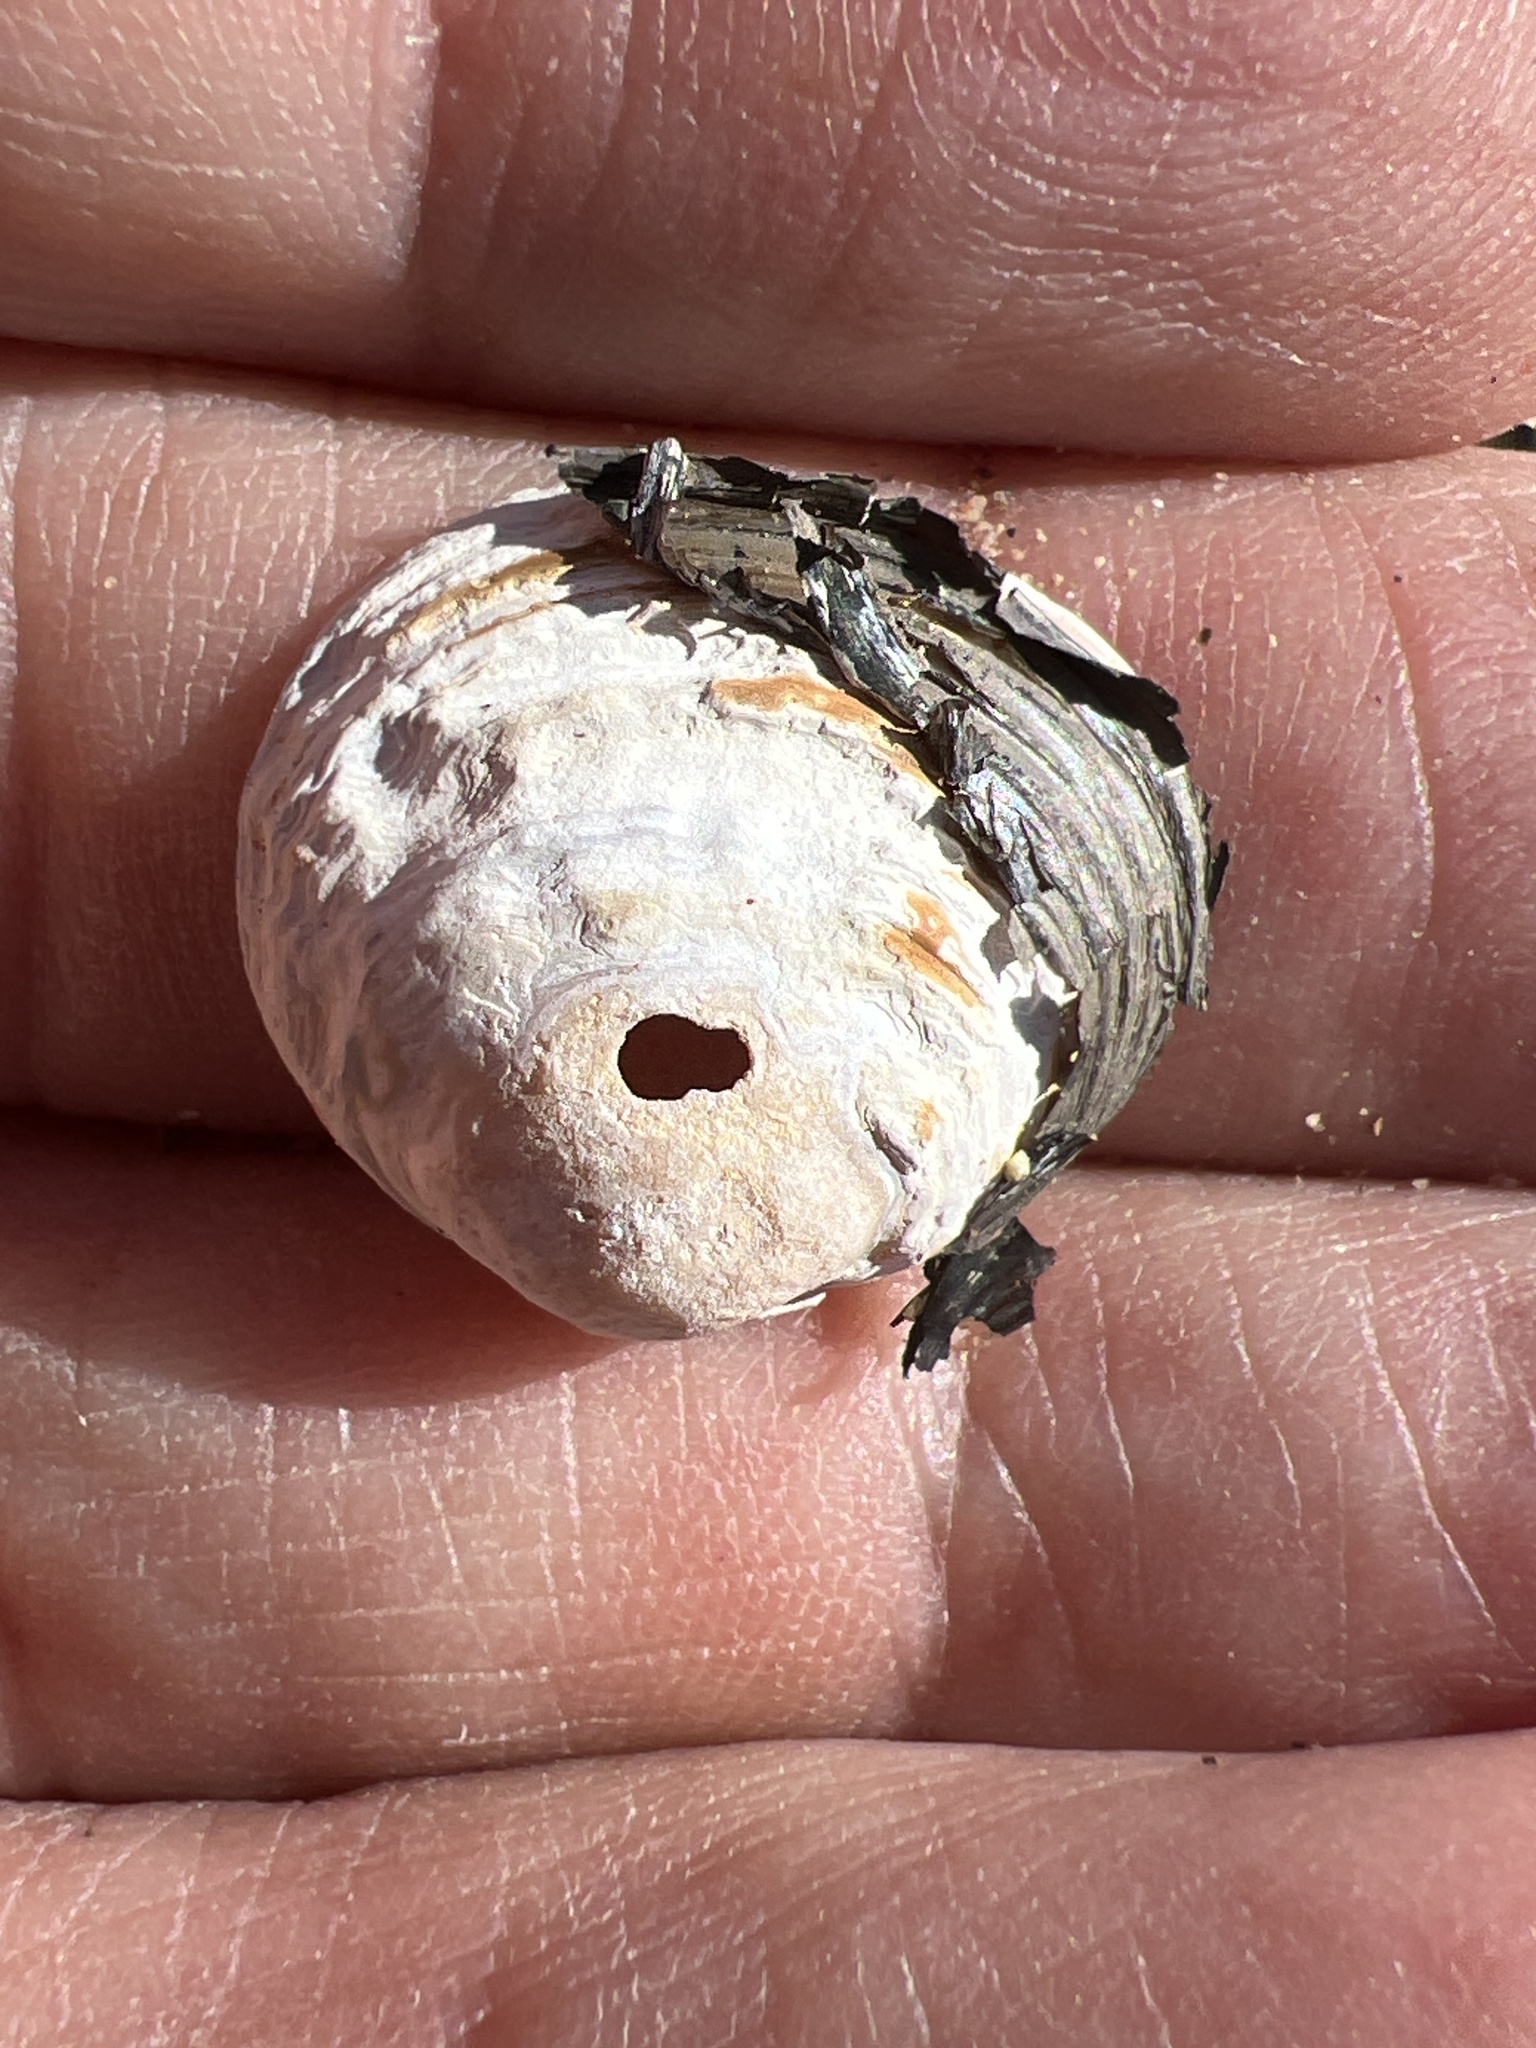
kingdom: Animalia
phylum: Mollusca
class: Bivalvia
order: Venerida
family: Cyrenidae
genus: Corbicula
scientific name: Corbicula fluminea
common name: Asian clam
